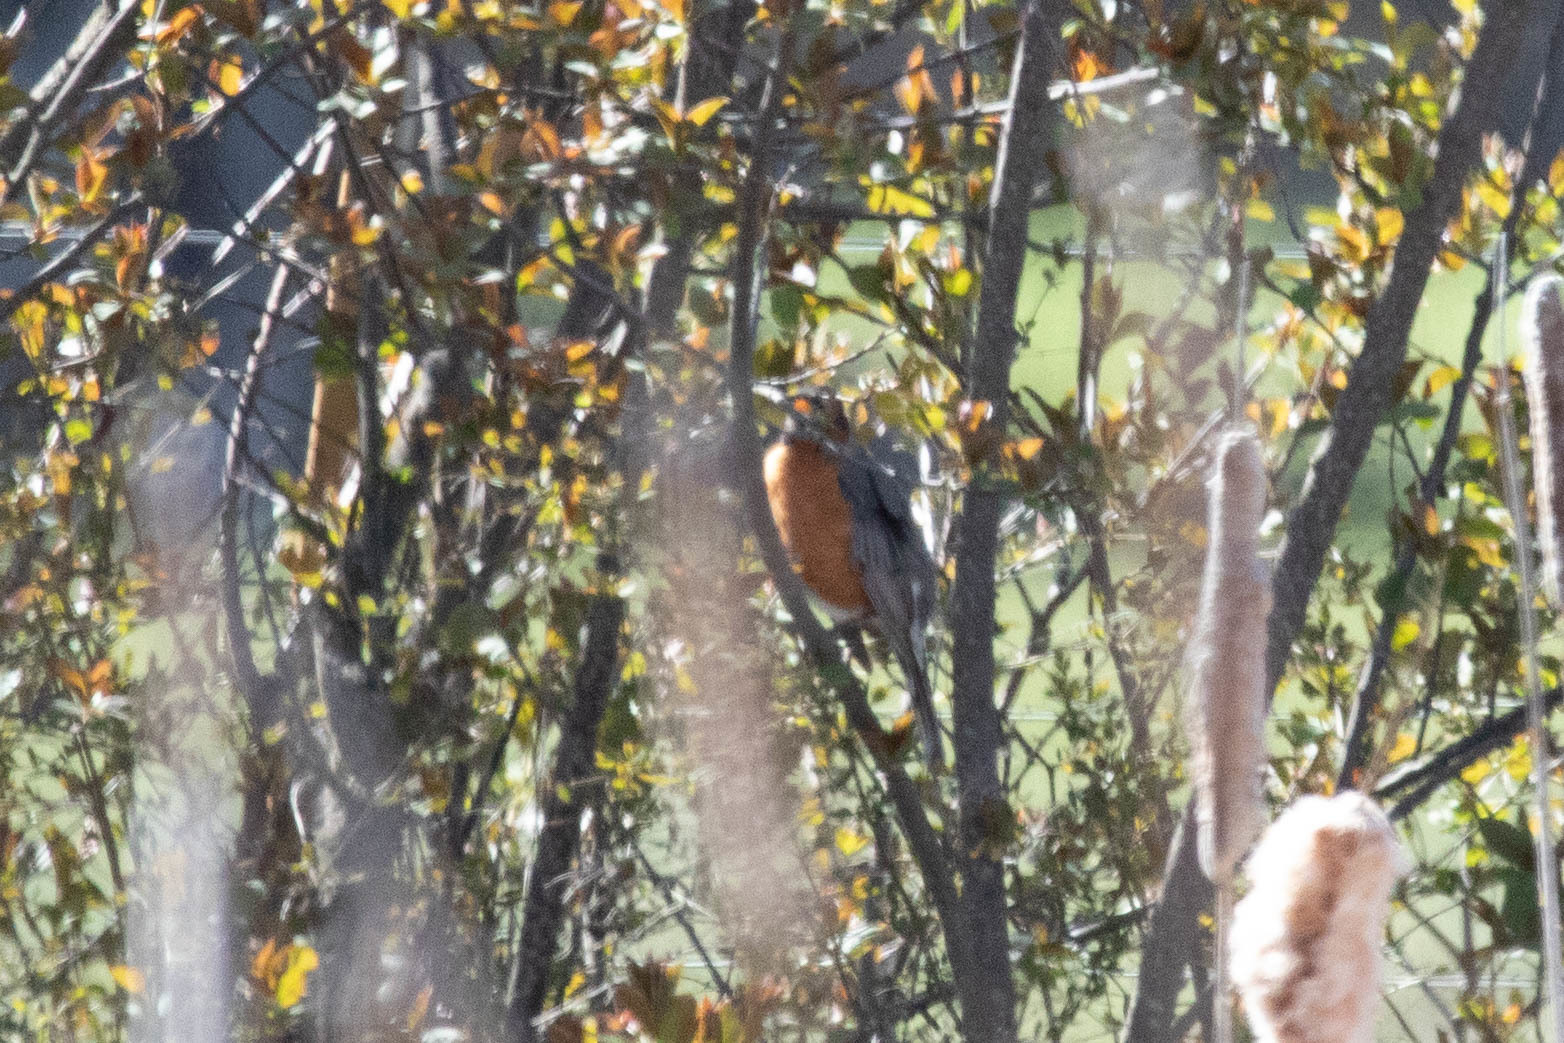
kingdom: Animalia
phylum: Chordata
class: Aves
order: Passeriformes
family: Turdidae
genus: Turdus
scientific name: Turdus migratorius
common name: American robin
